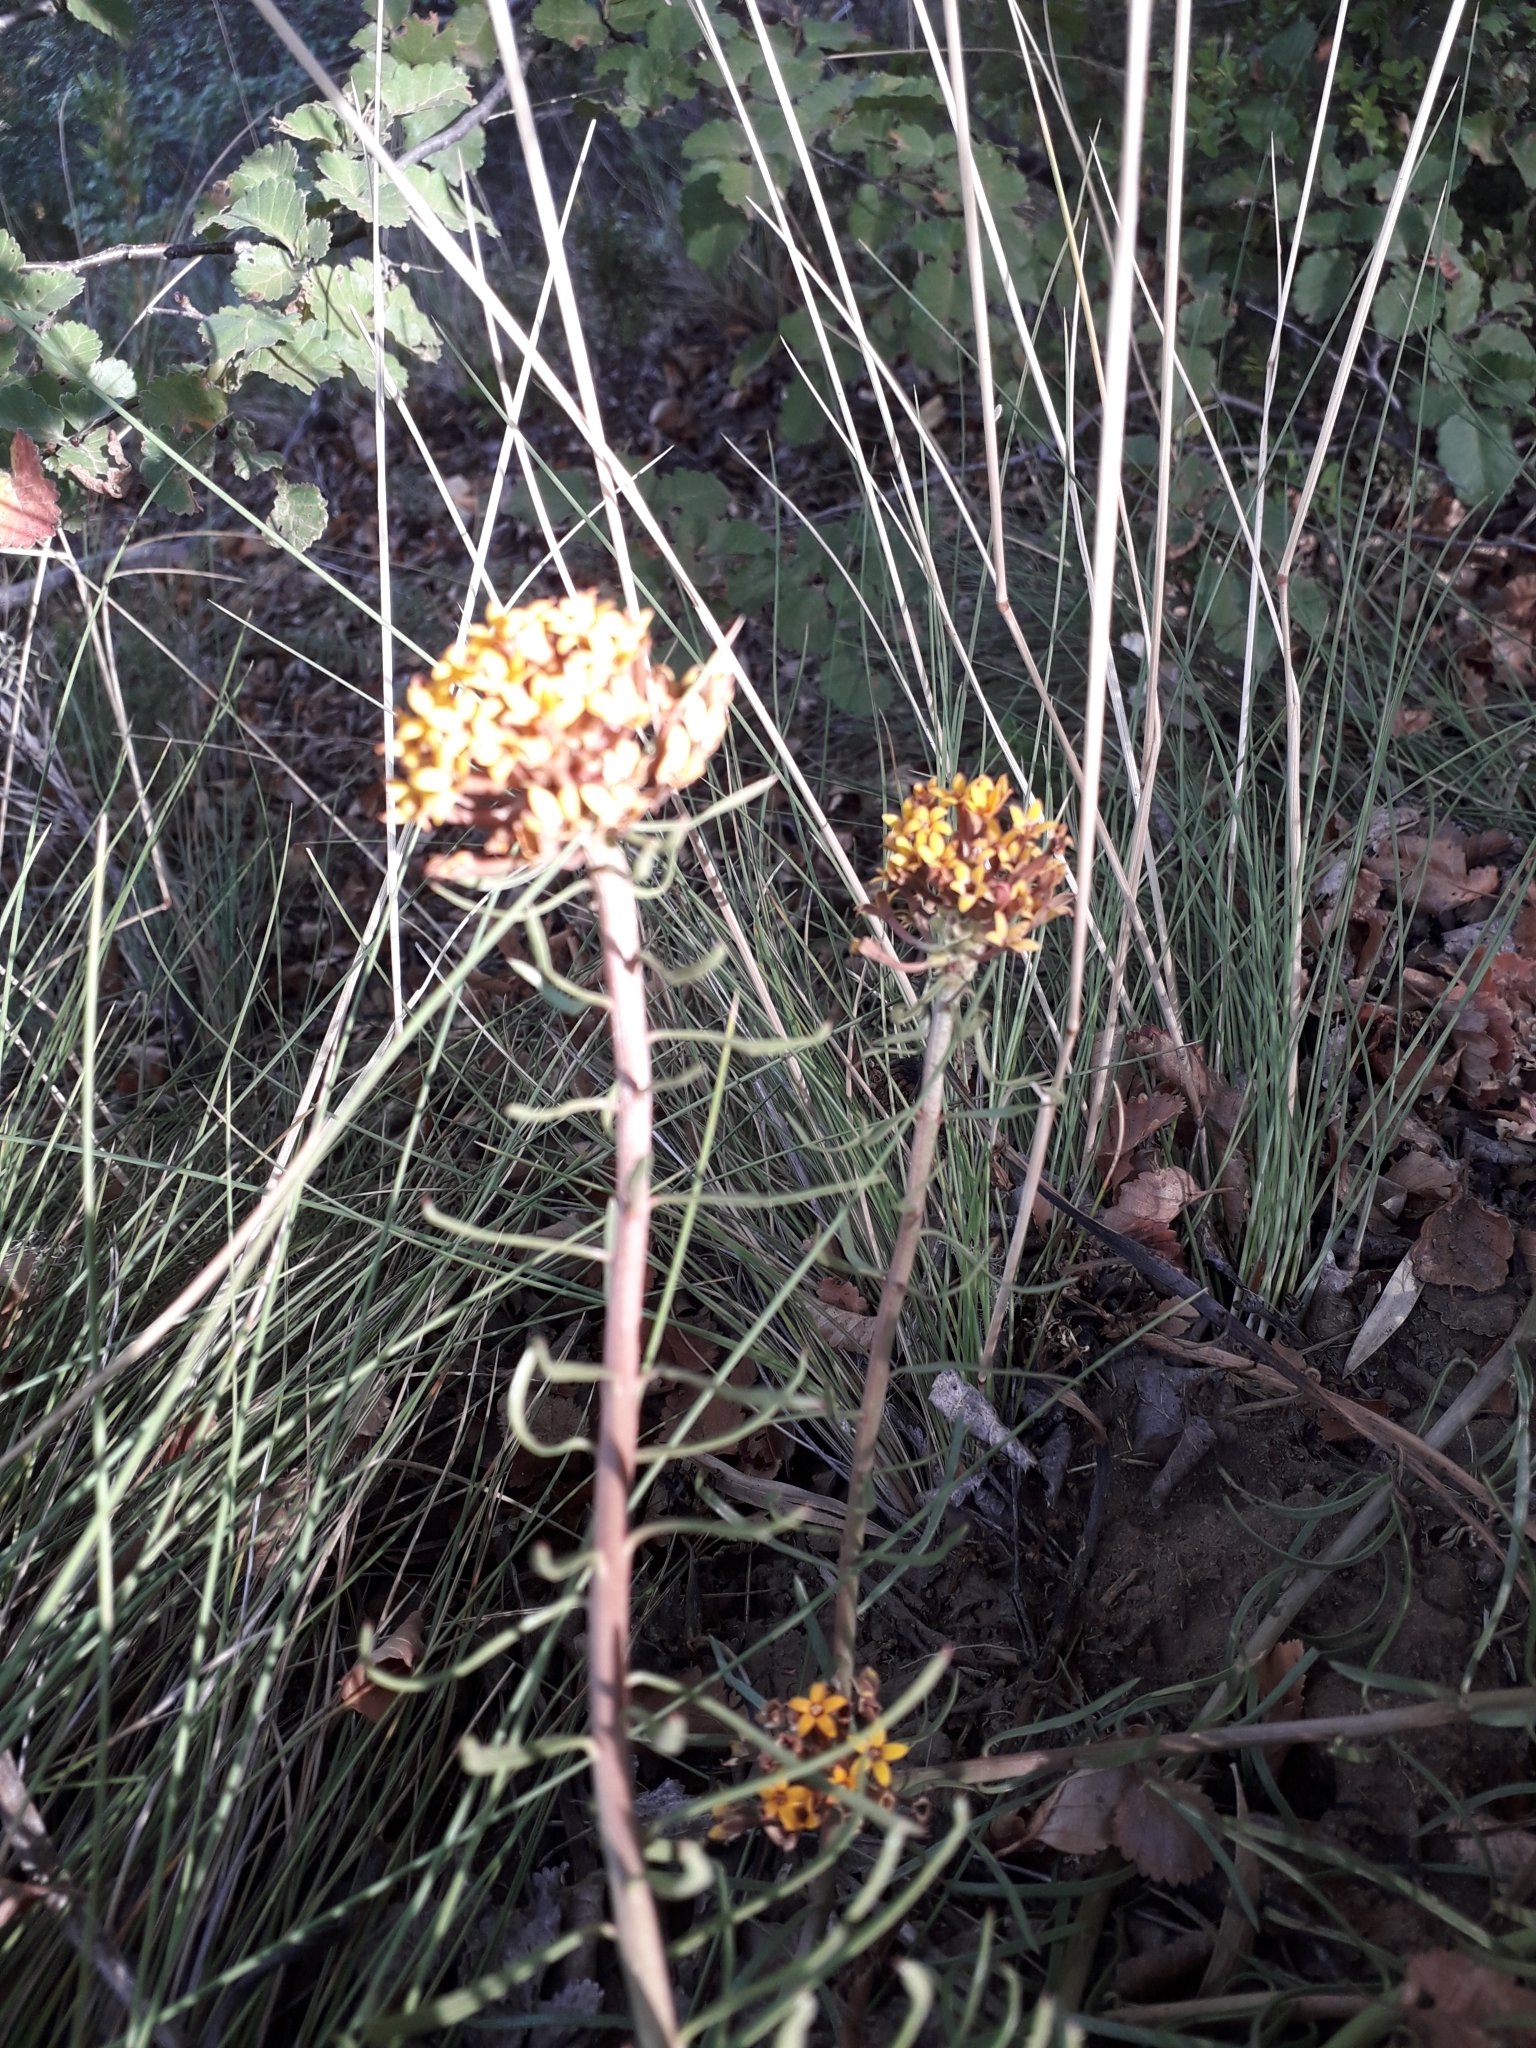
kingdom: Plantae
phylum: Tracheophyta
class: Magnoliopsida
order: Santalales
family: Schoepfiaceae
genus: Quinchamalium
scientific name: Quinchamalium chilense
